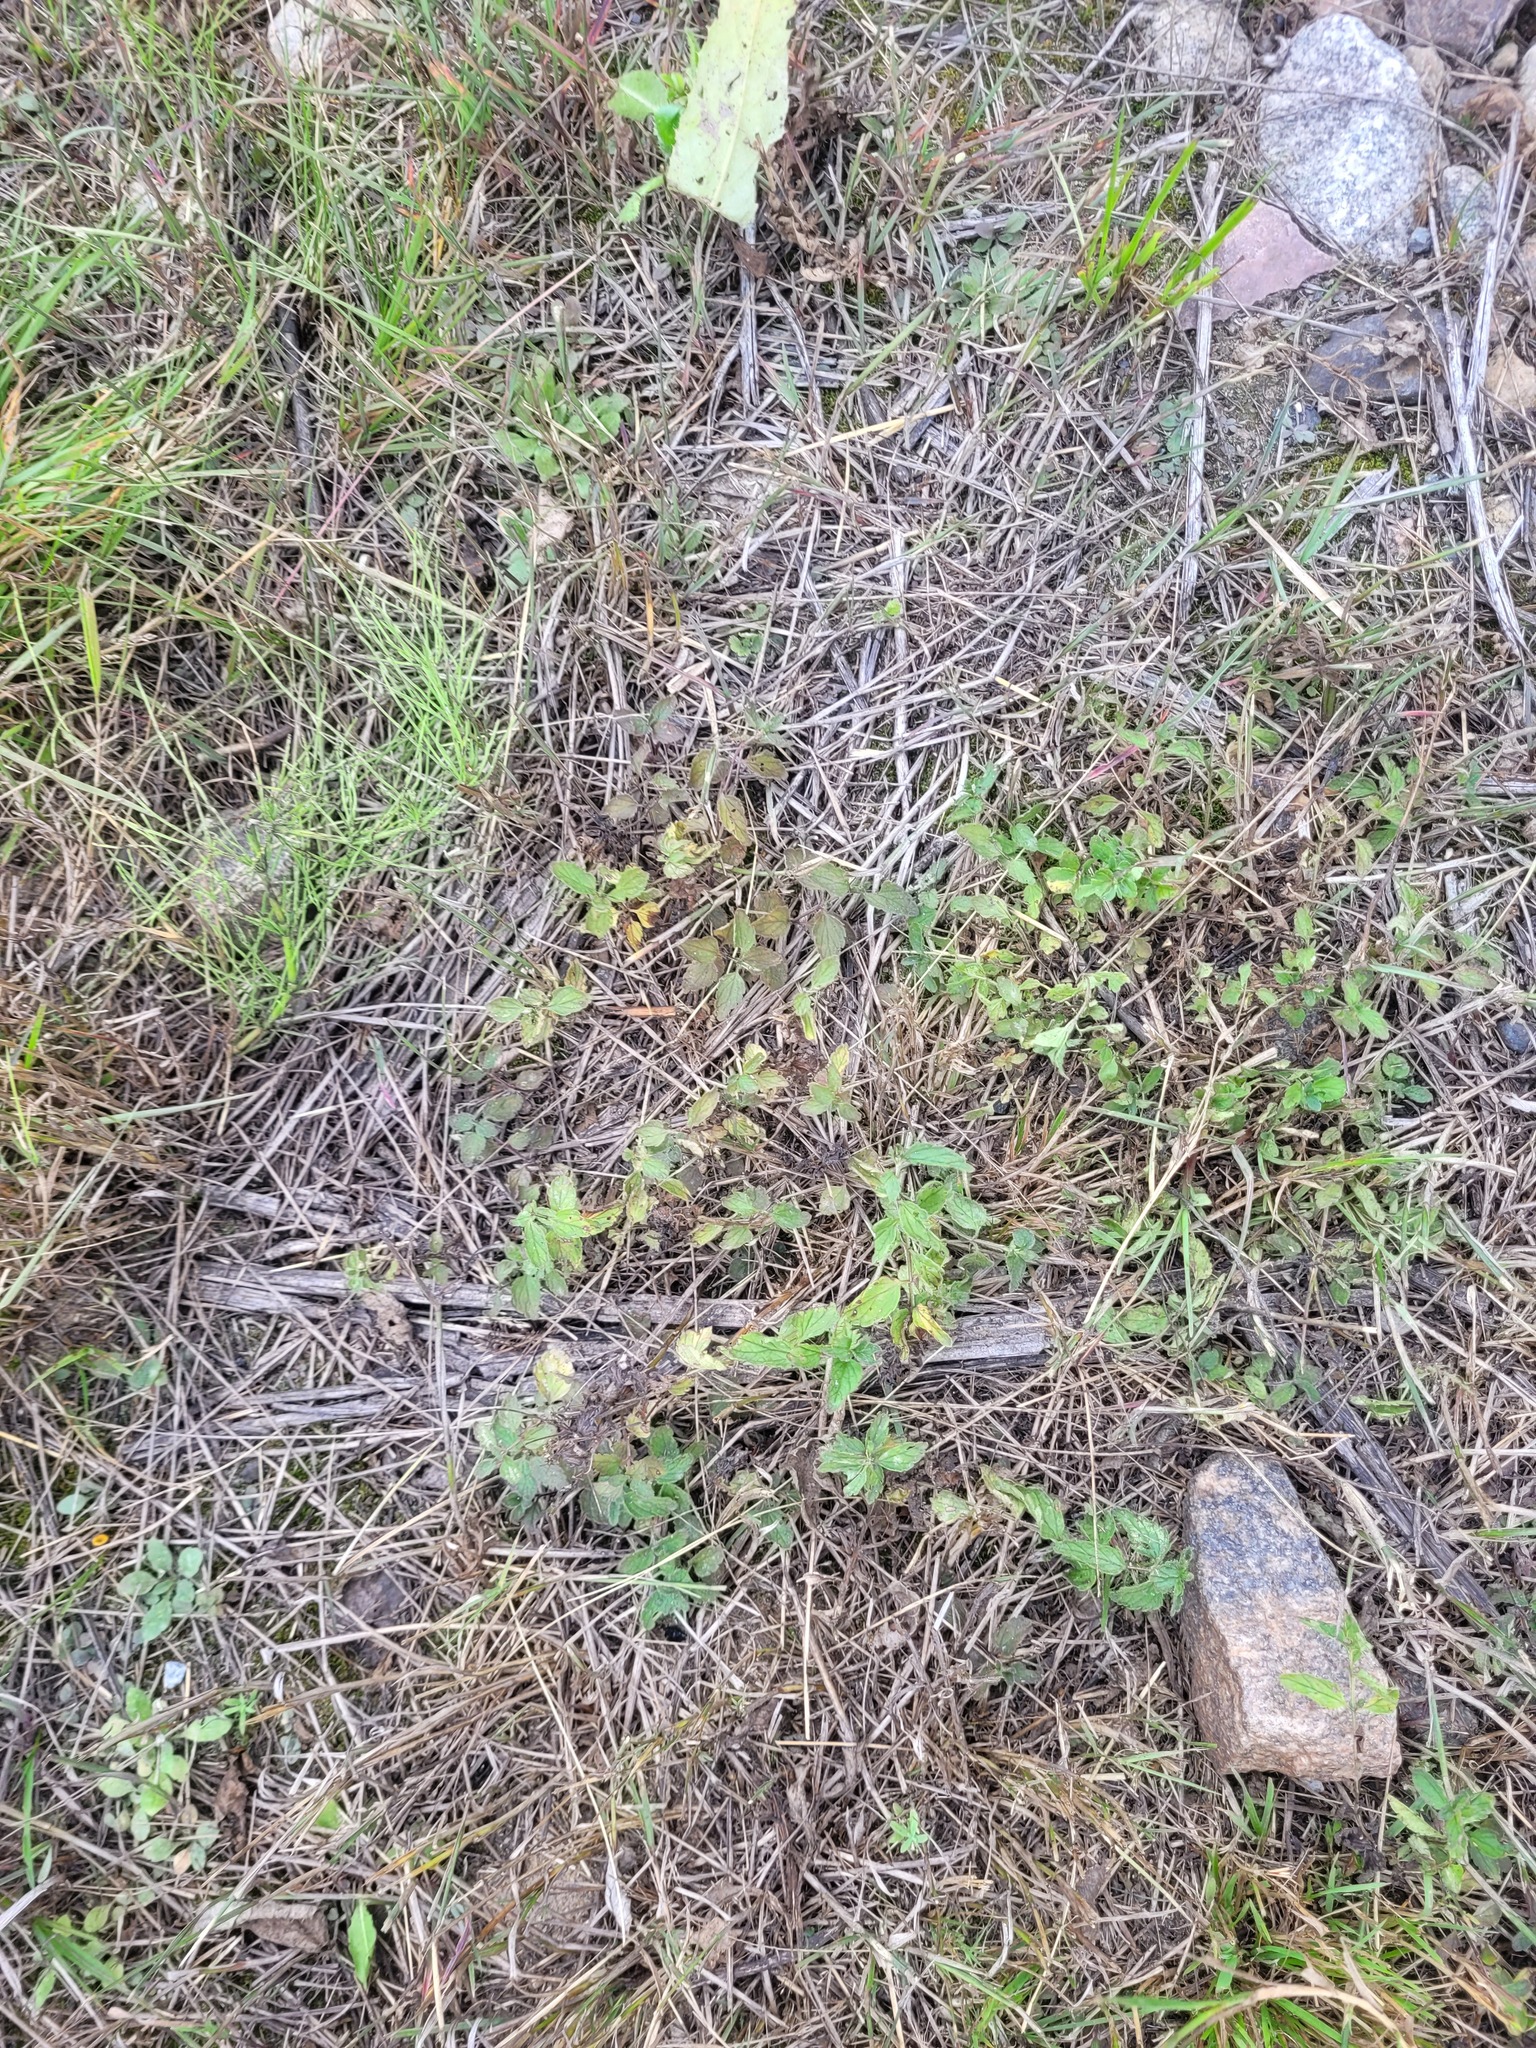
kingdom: Plantae
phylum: Tracheophyta
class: Magnoliopsida
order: Lamiales
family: Plantaginaceae
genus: Veronica
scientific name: Veronica chamaedrys
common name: Germander speedwell
